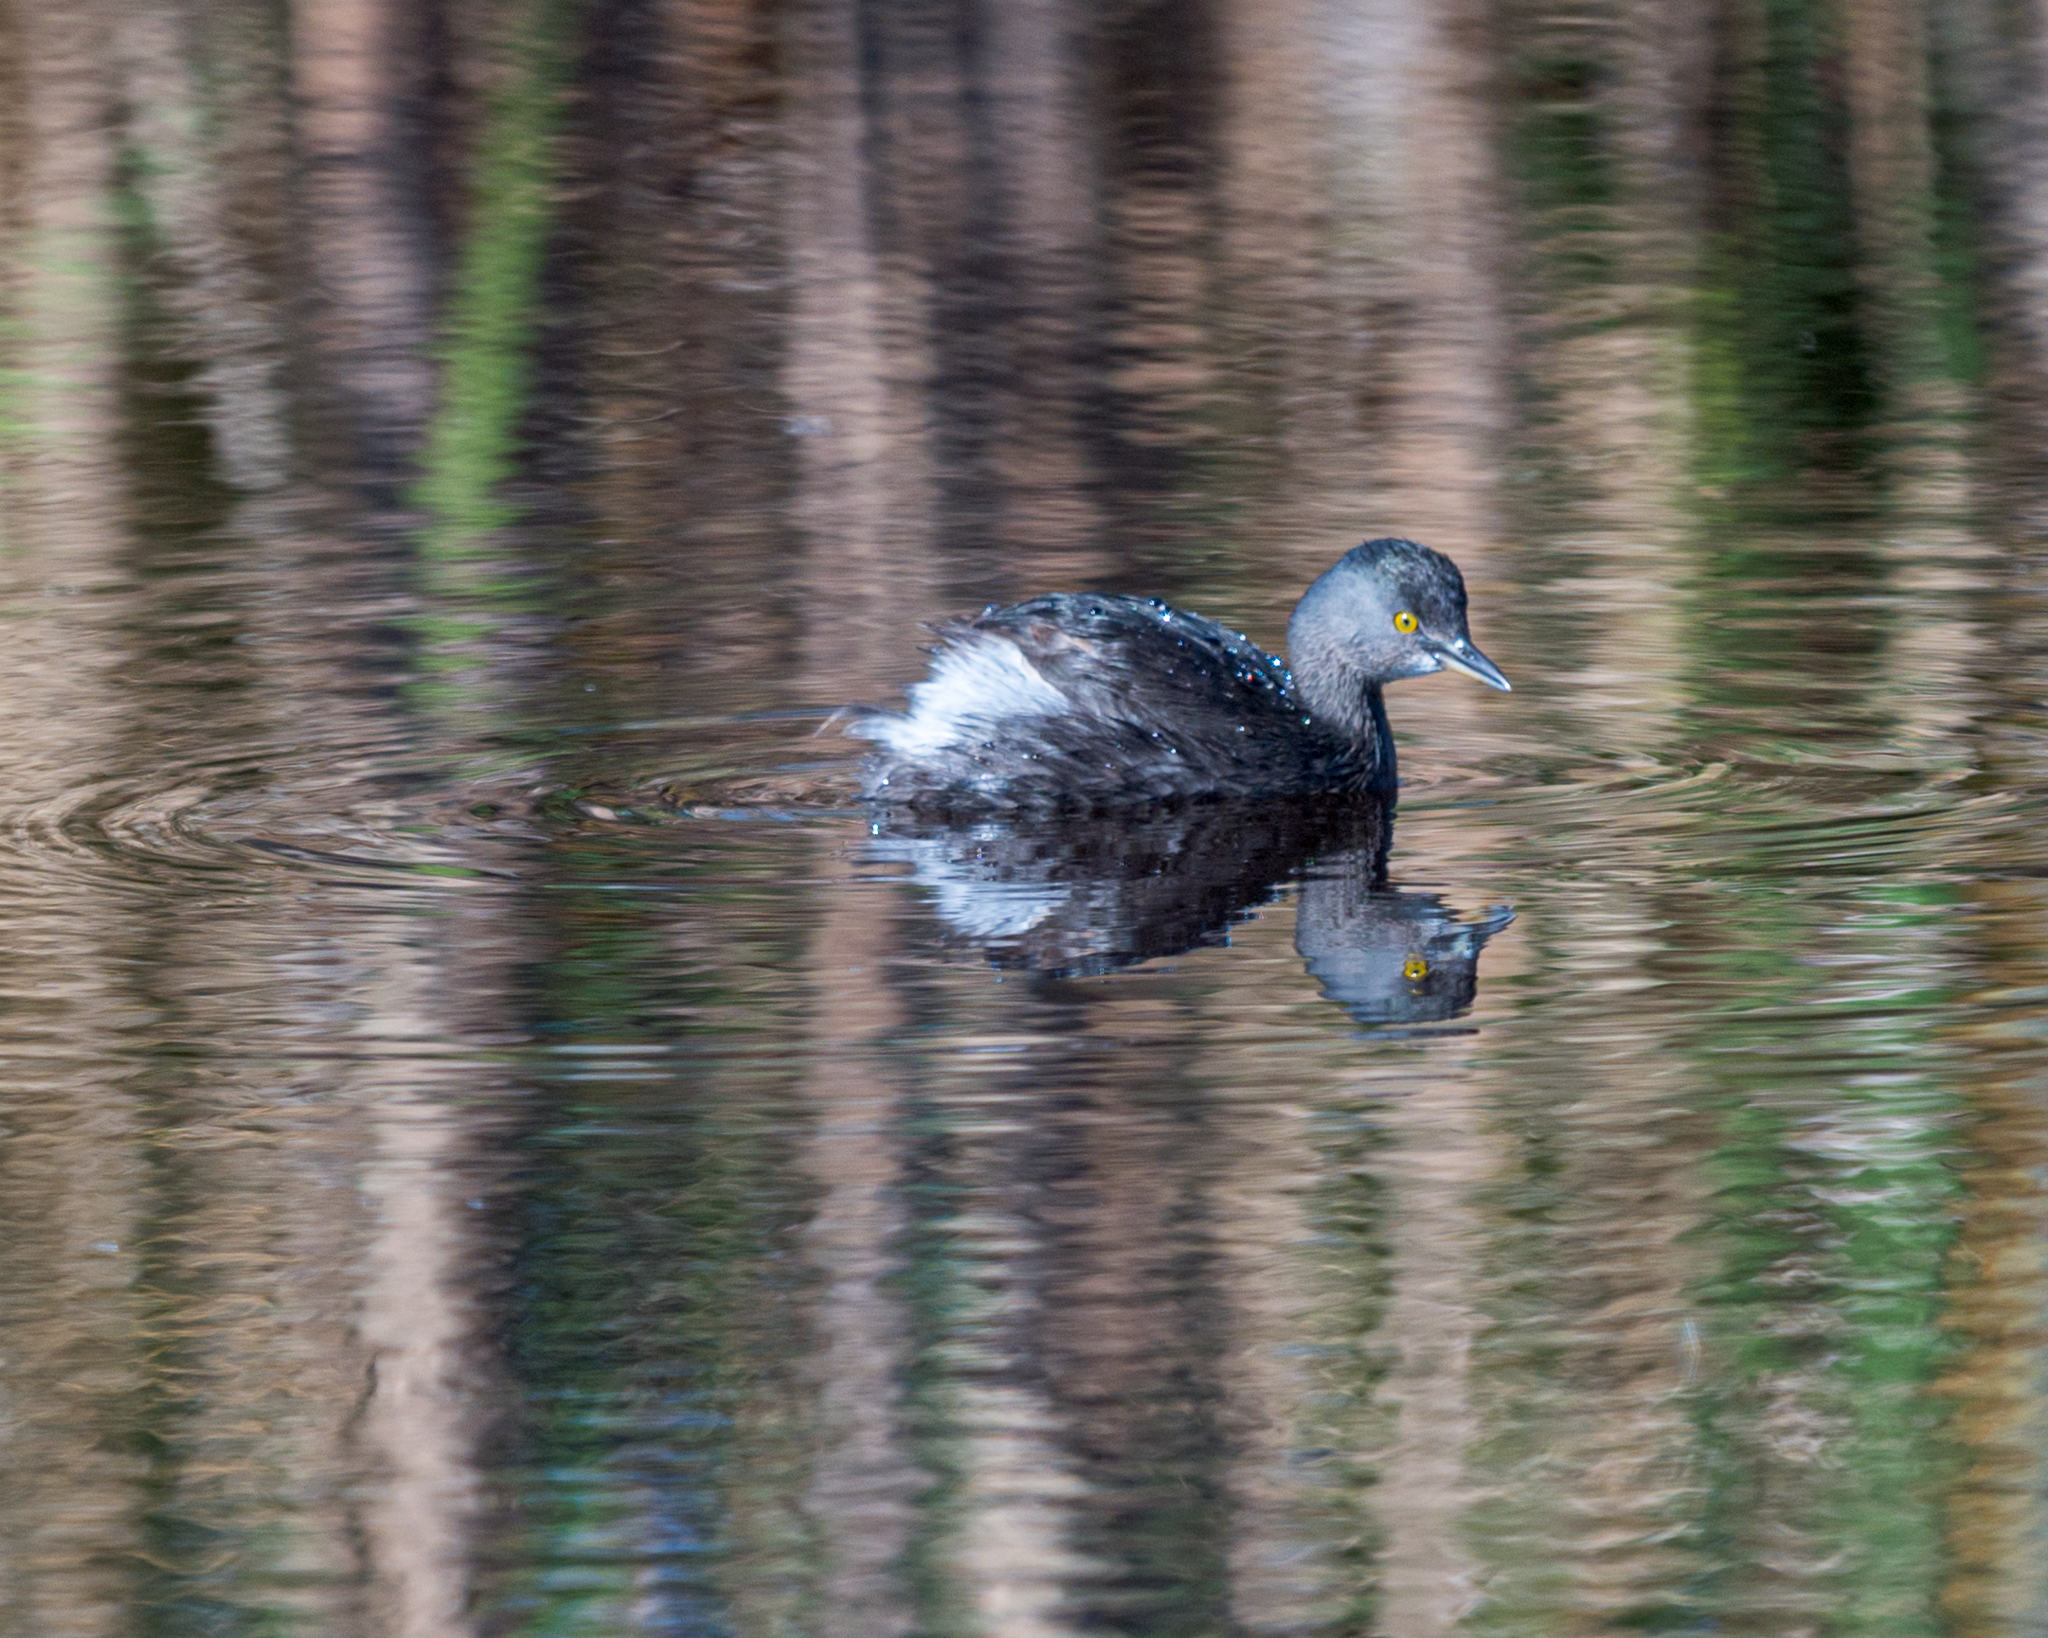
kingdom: Animalia
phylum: Chordata
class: Aves
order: Podicipediformes
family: Podicipedidae
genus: Tachybaptus
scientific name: Tachybaptus dominicus
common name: Least grebe
